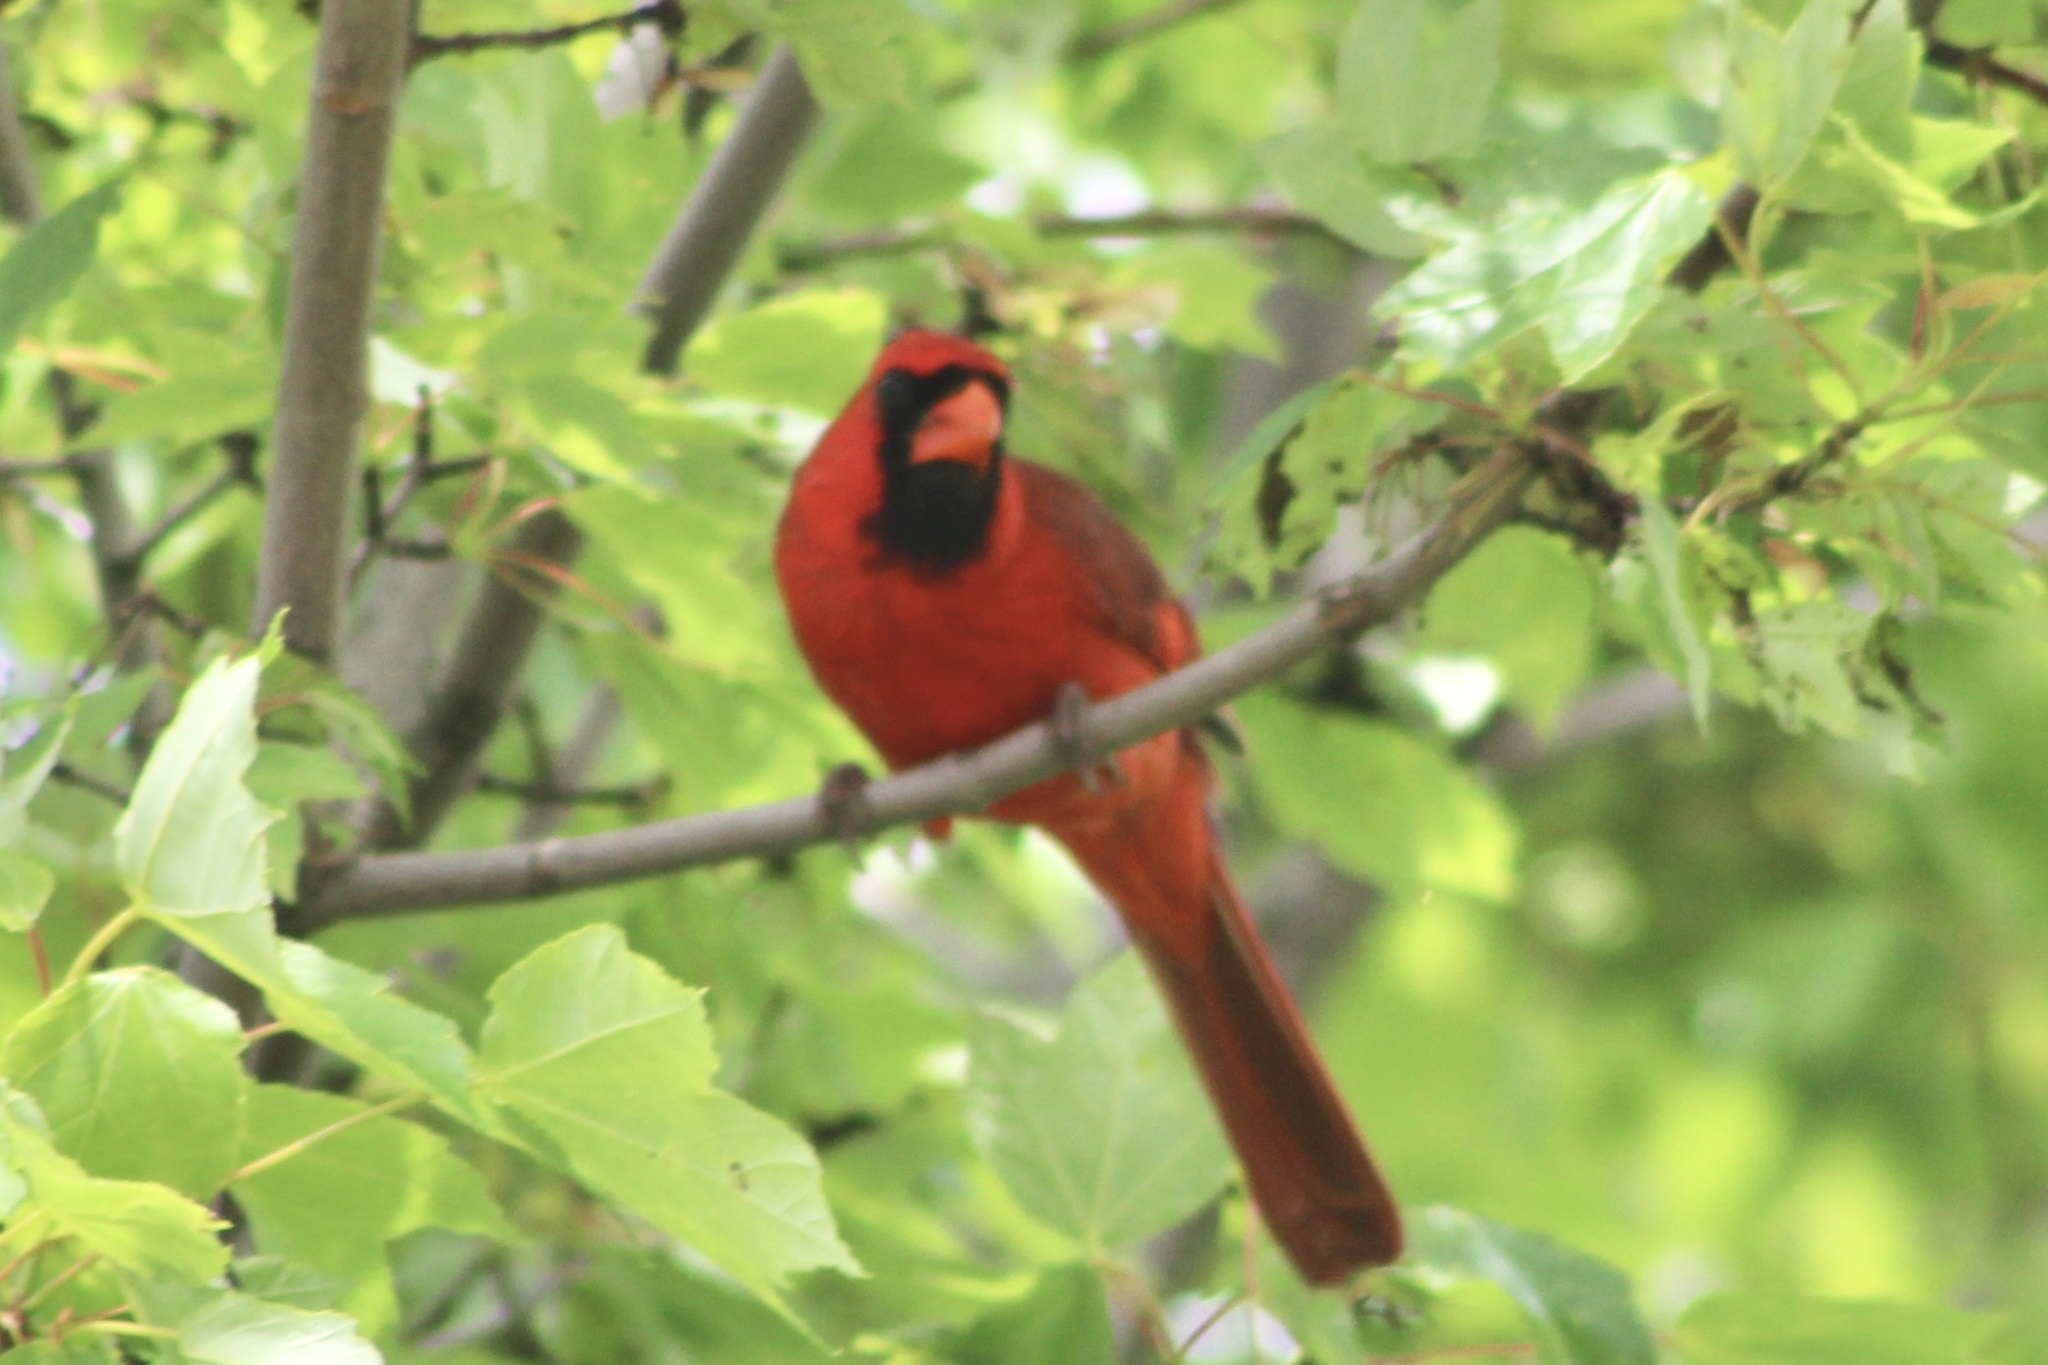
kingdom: Animalia
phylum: Chordata
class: Aves
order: Passeriformes
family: Cardinalidae
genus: Cardinalis
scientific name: Cardinalis cardinalis
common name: Northern cardinal
